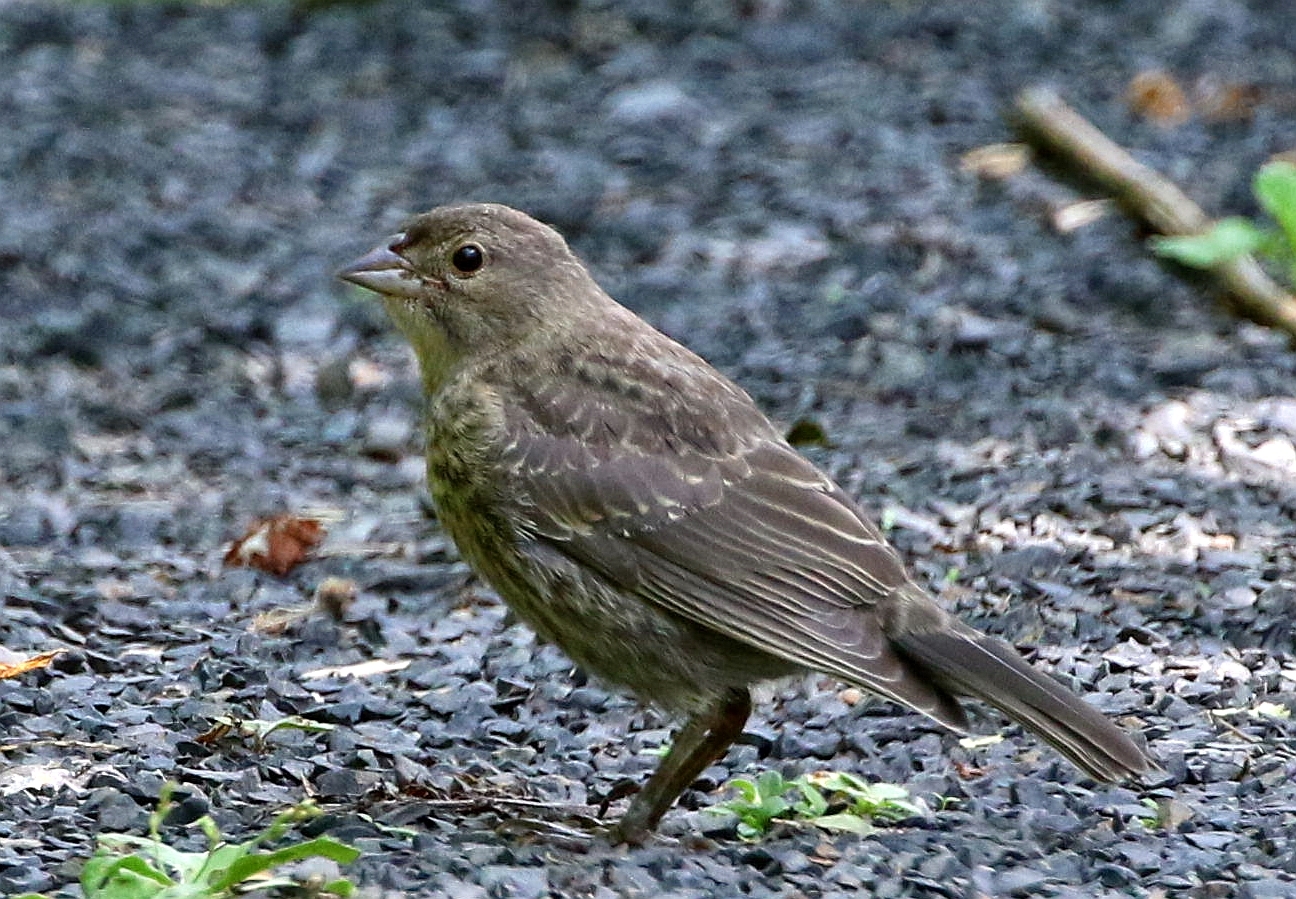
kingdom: Animalia
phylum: Chordata
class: Aves
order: Passeriformes
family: Icteridae
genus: Molothrus
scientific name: Molothrus ater
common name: Brown-headed cowbird
